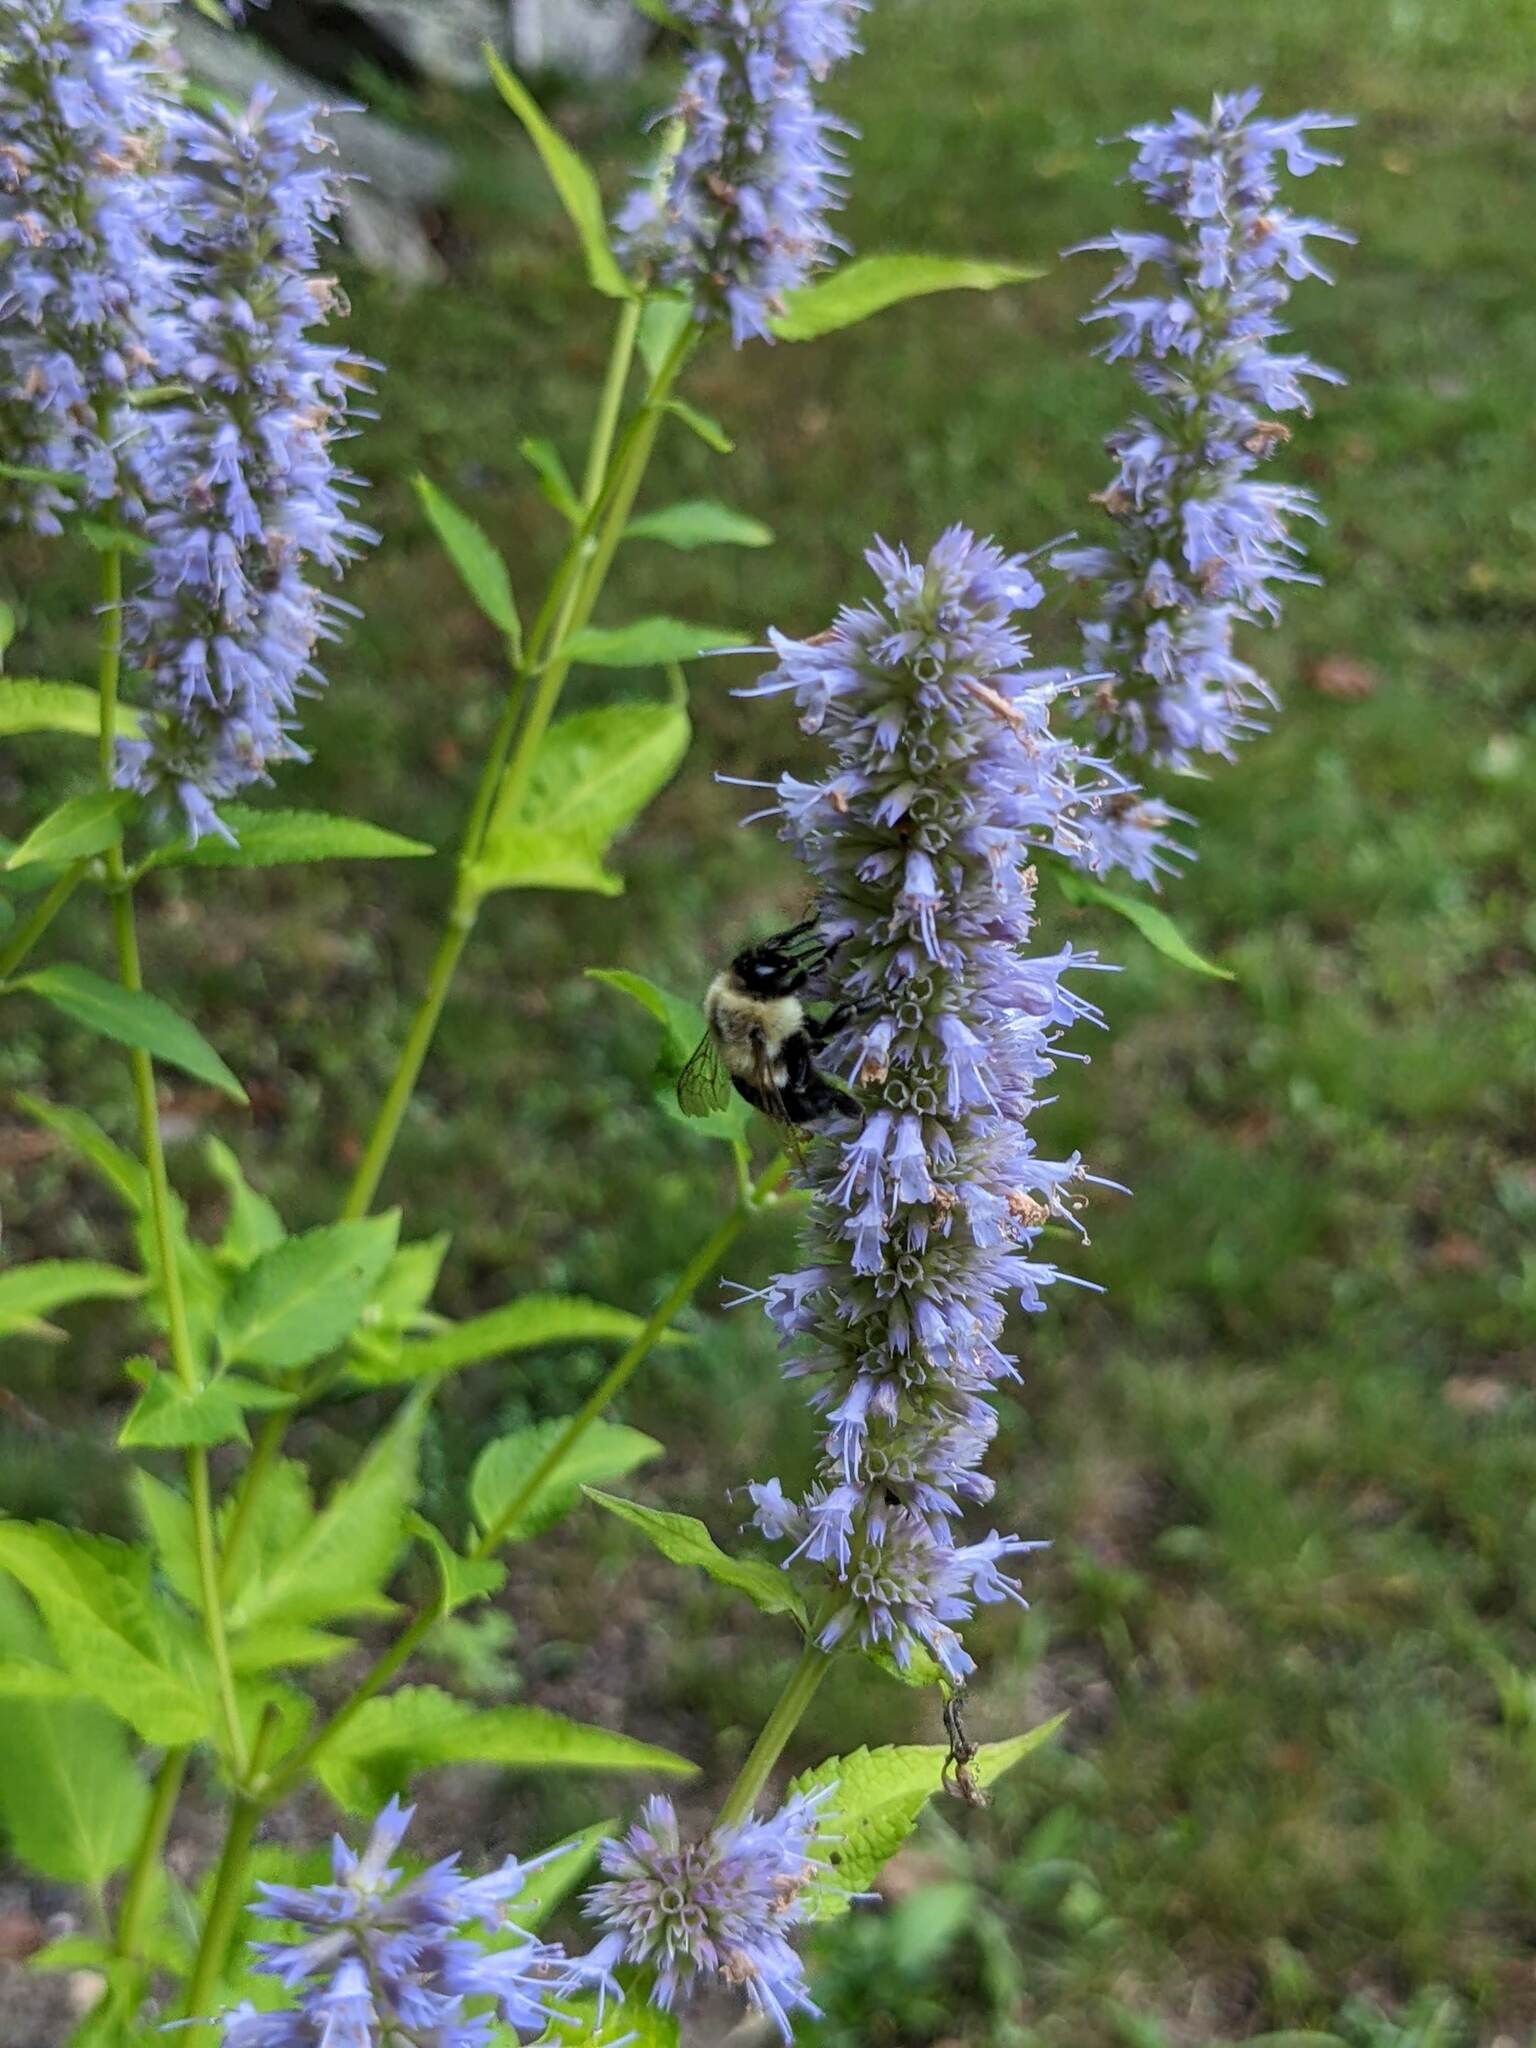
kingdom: Animalia
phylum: Arthropoda
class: Insecta
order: Hymenoptera
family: Apidae
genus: Bombus
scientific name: Bombus impatiens
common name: Common eastern bumble bee
